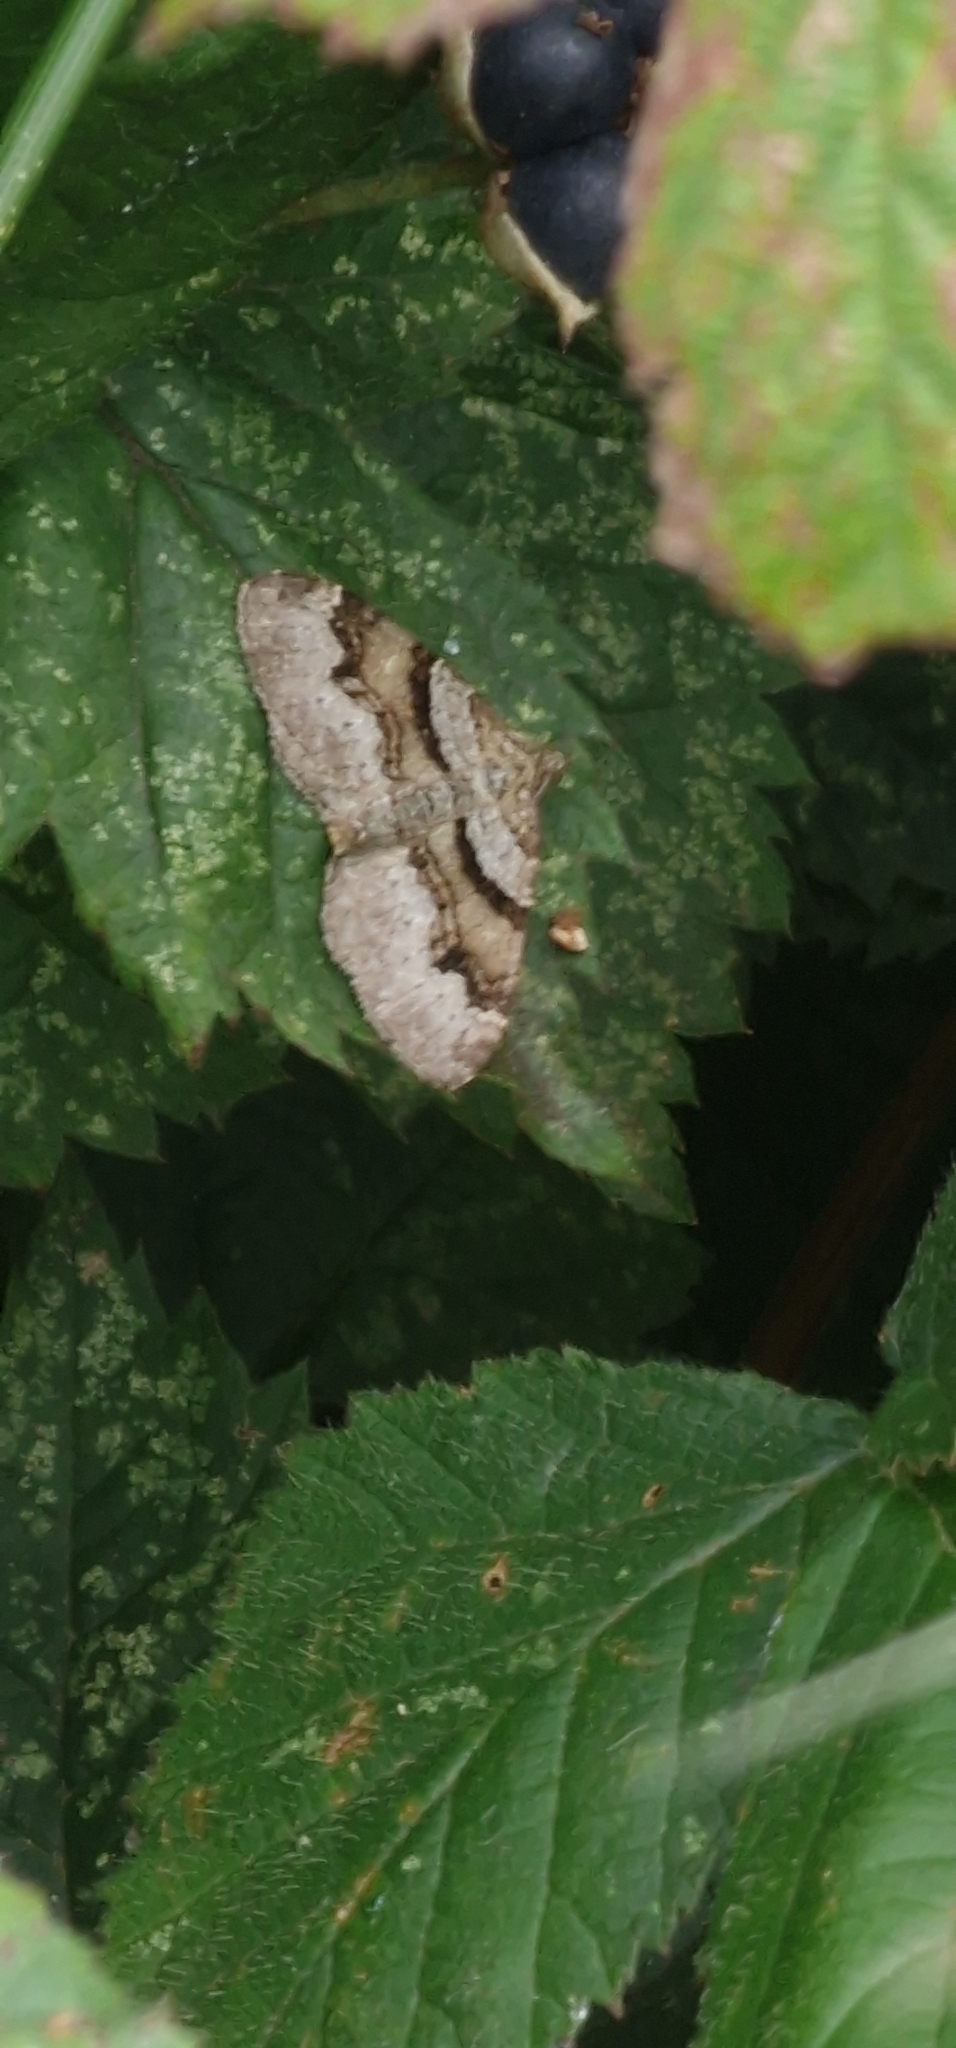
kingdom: Animalia
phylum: Arthropoda
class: Insecta
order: Lepidoptera
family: Geometridae
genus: Xanthorhoe
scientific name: Xanthorhoe designata
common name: Flame carpet
